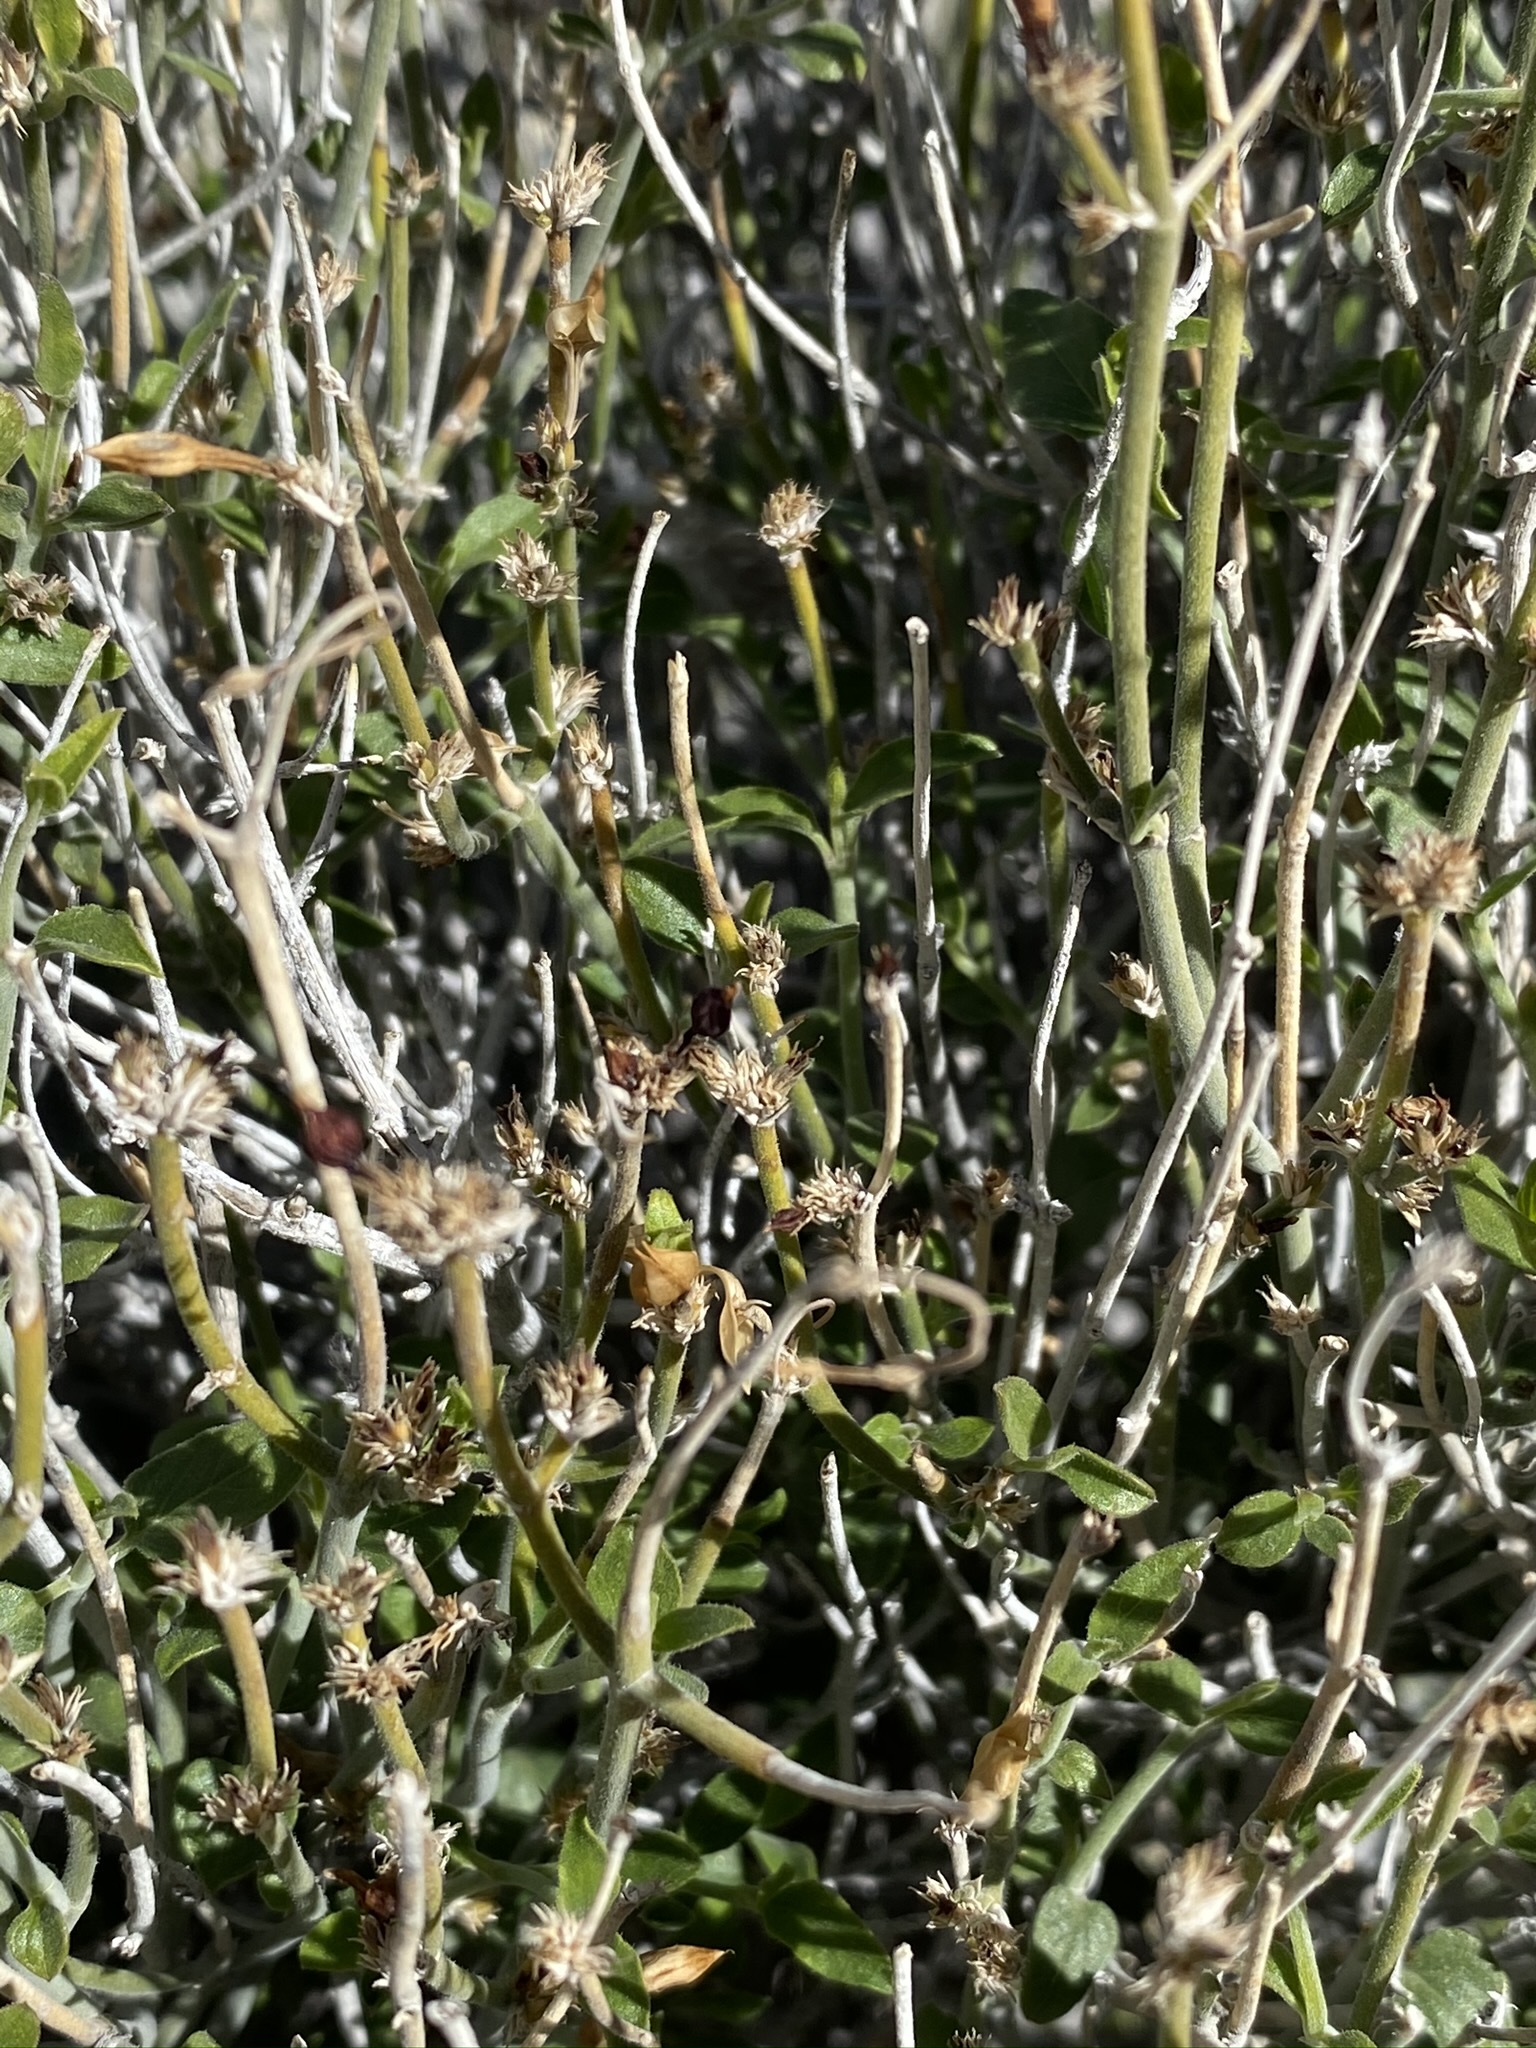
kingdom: Plantae
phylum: Tracheophyta
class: Magnoliopsida
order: Lamiales
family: Acanthaceae
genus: Carlowrightia
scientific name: Carlowrightia arizonica
